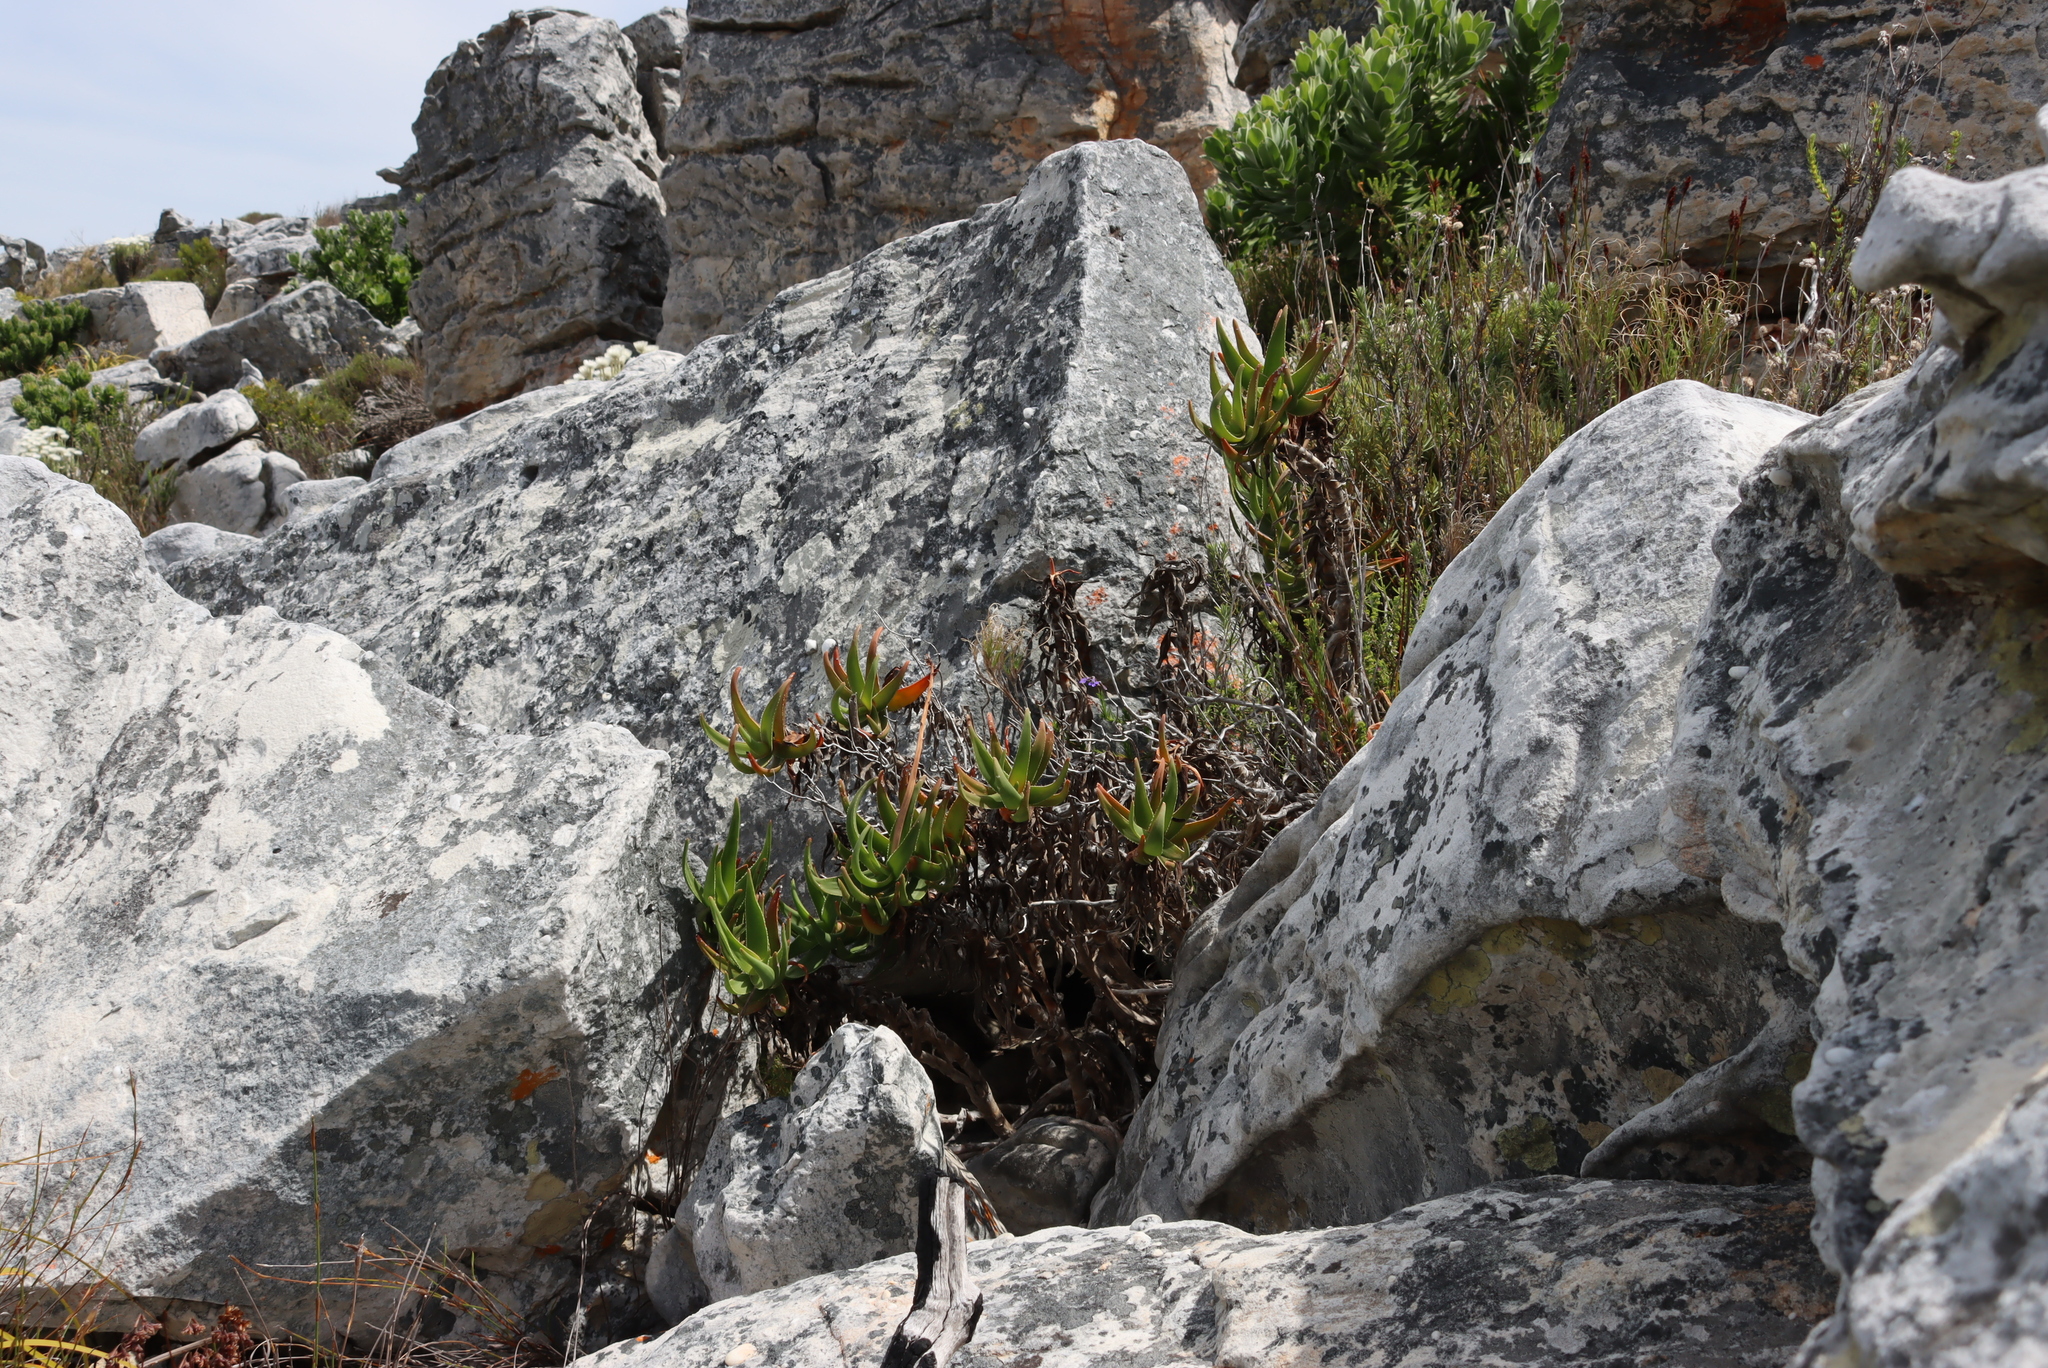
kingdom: Plantae
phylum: Tracheophyta
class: Liliopsida
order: Asparagales
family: Asphodelaceae
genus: Aloiampelos
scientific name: Aloiampelos commixta
